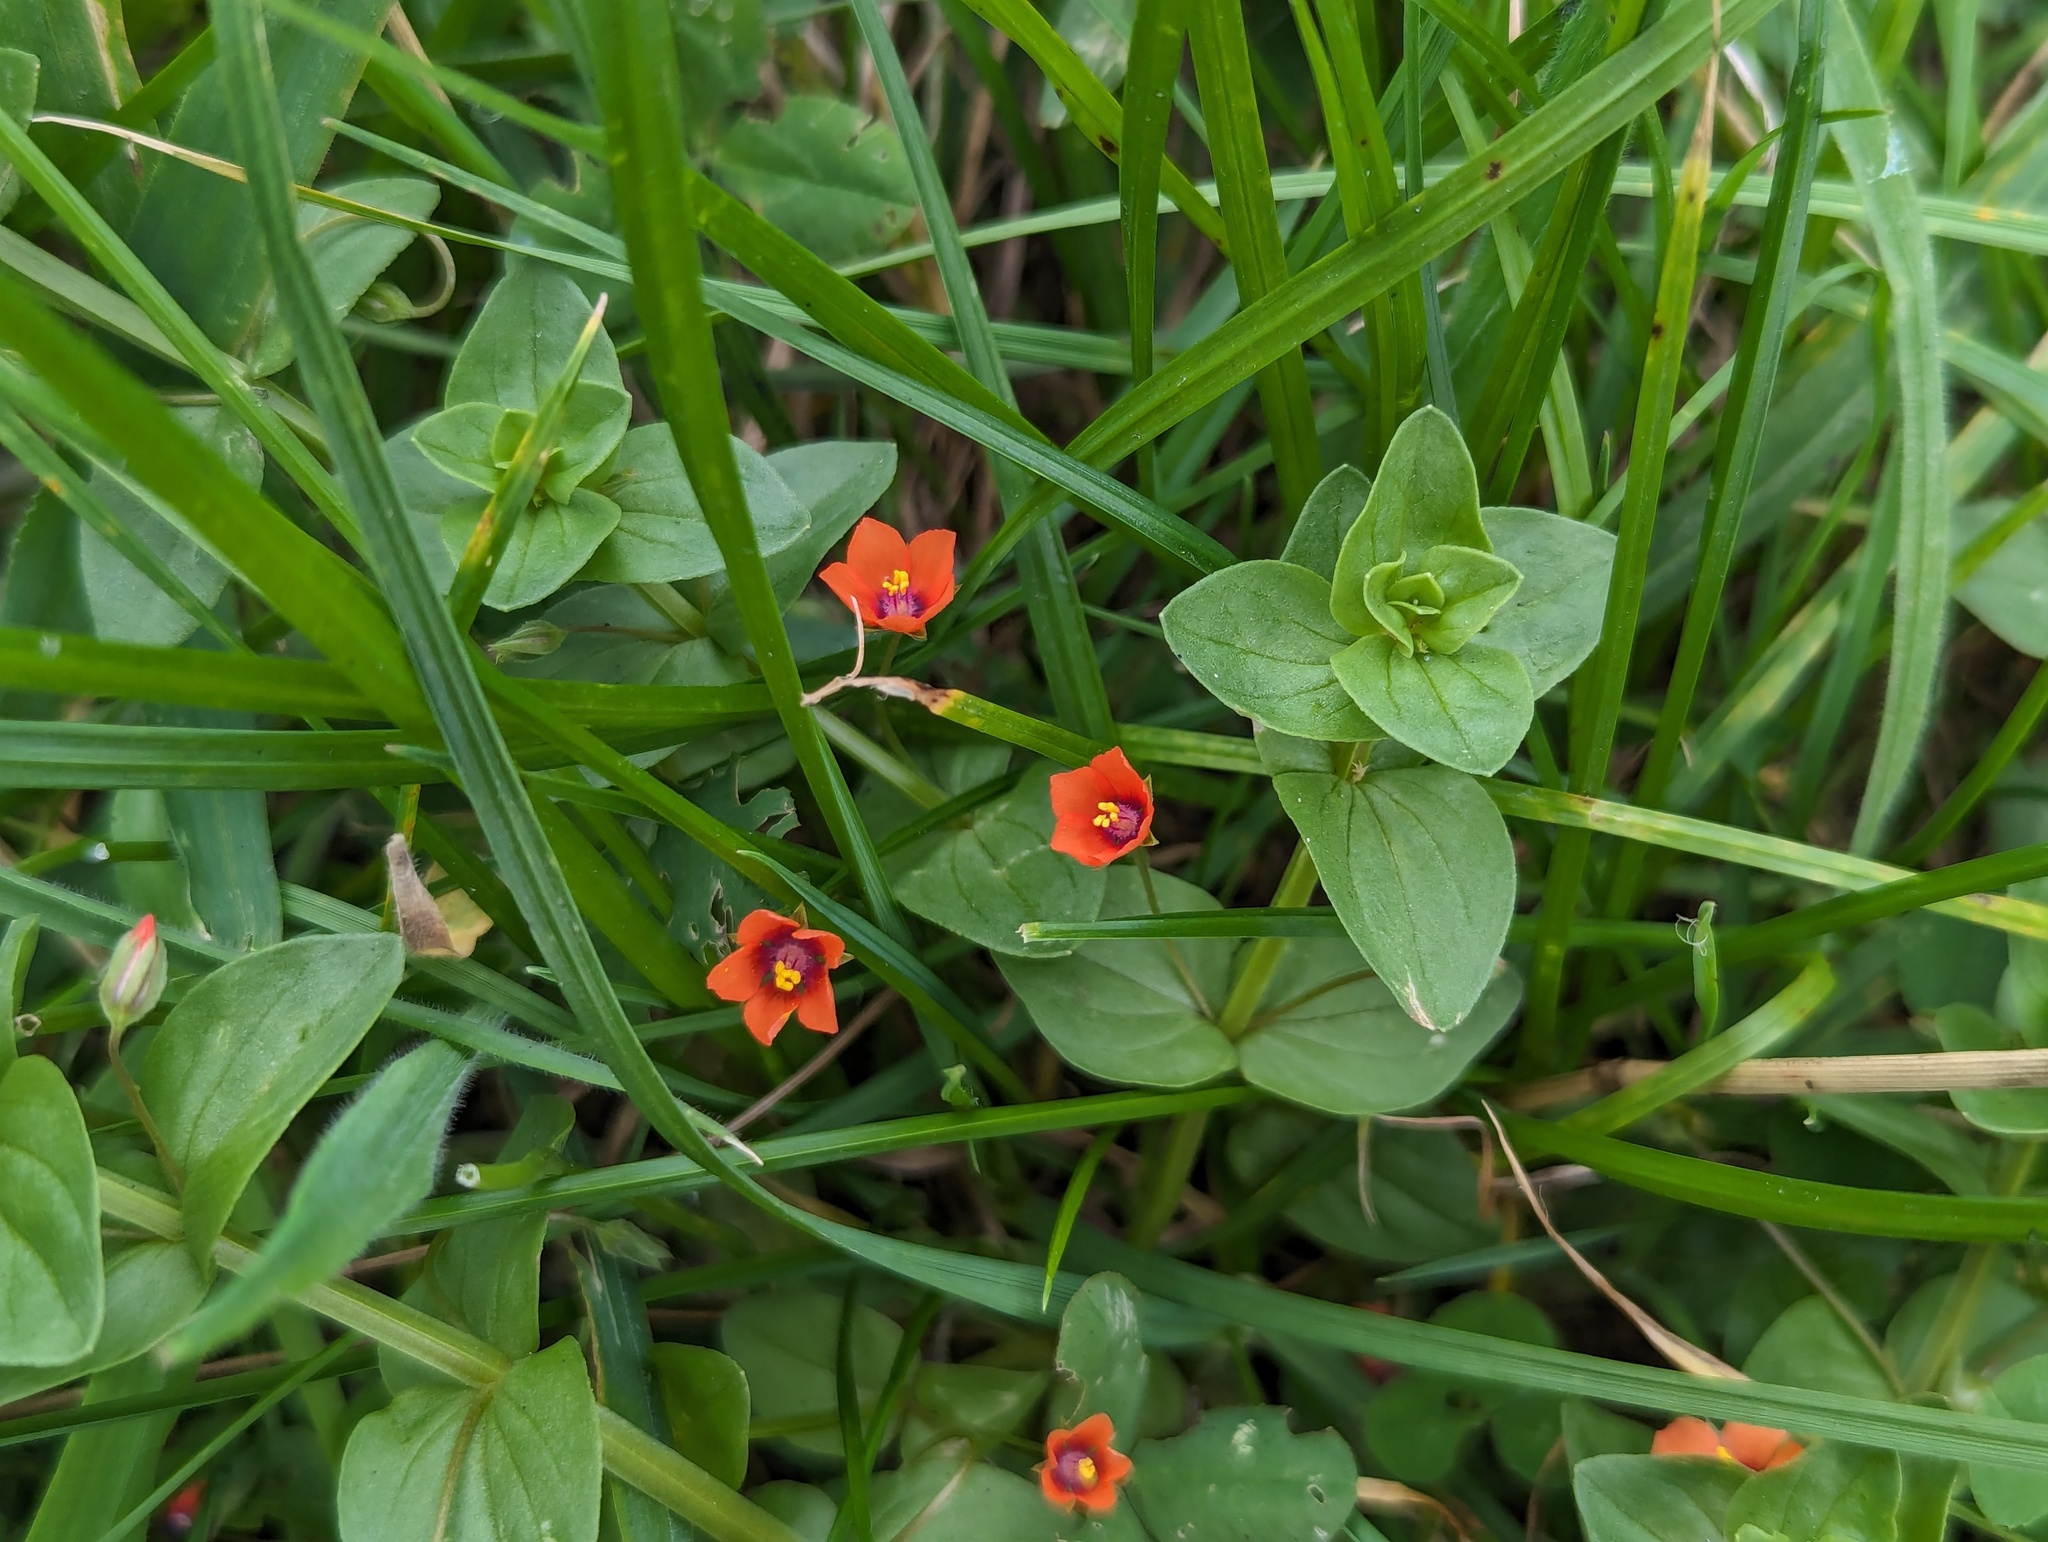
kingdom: Plantae
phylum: Tracheophyta
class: Magnoliopsida
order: Ericales
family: Primulaceae
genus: Lysimachia
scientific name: Lysimachia arvensis
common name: Scarlet pimpernel
